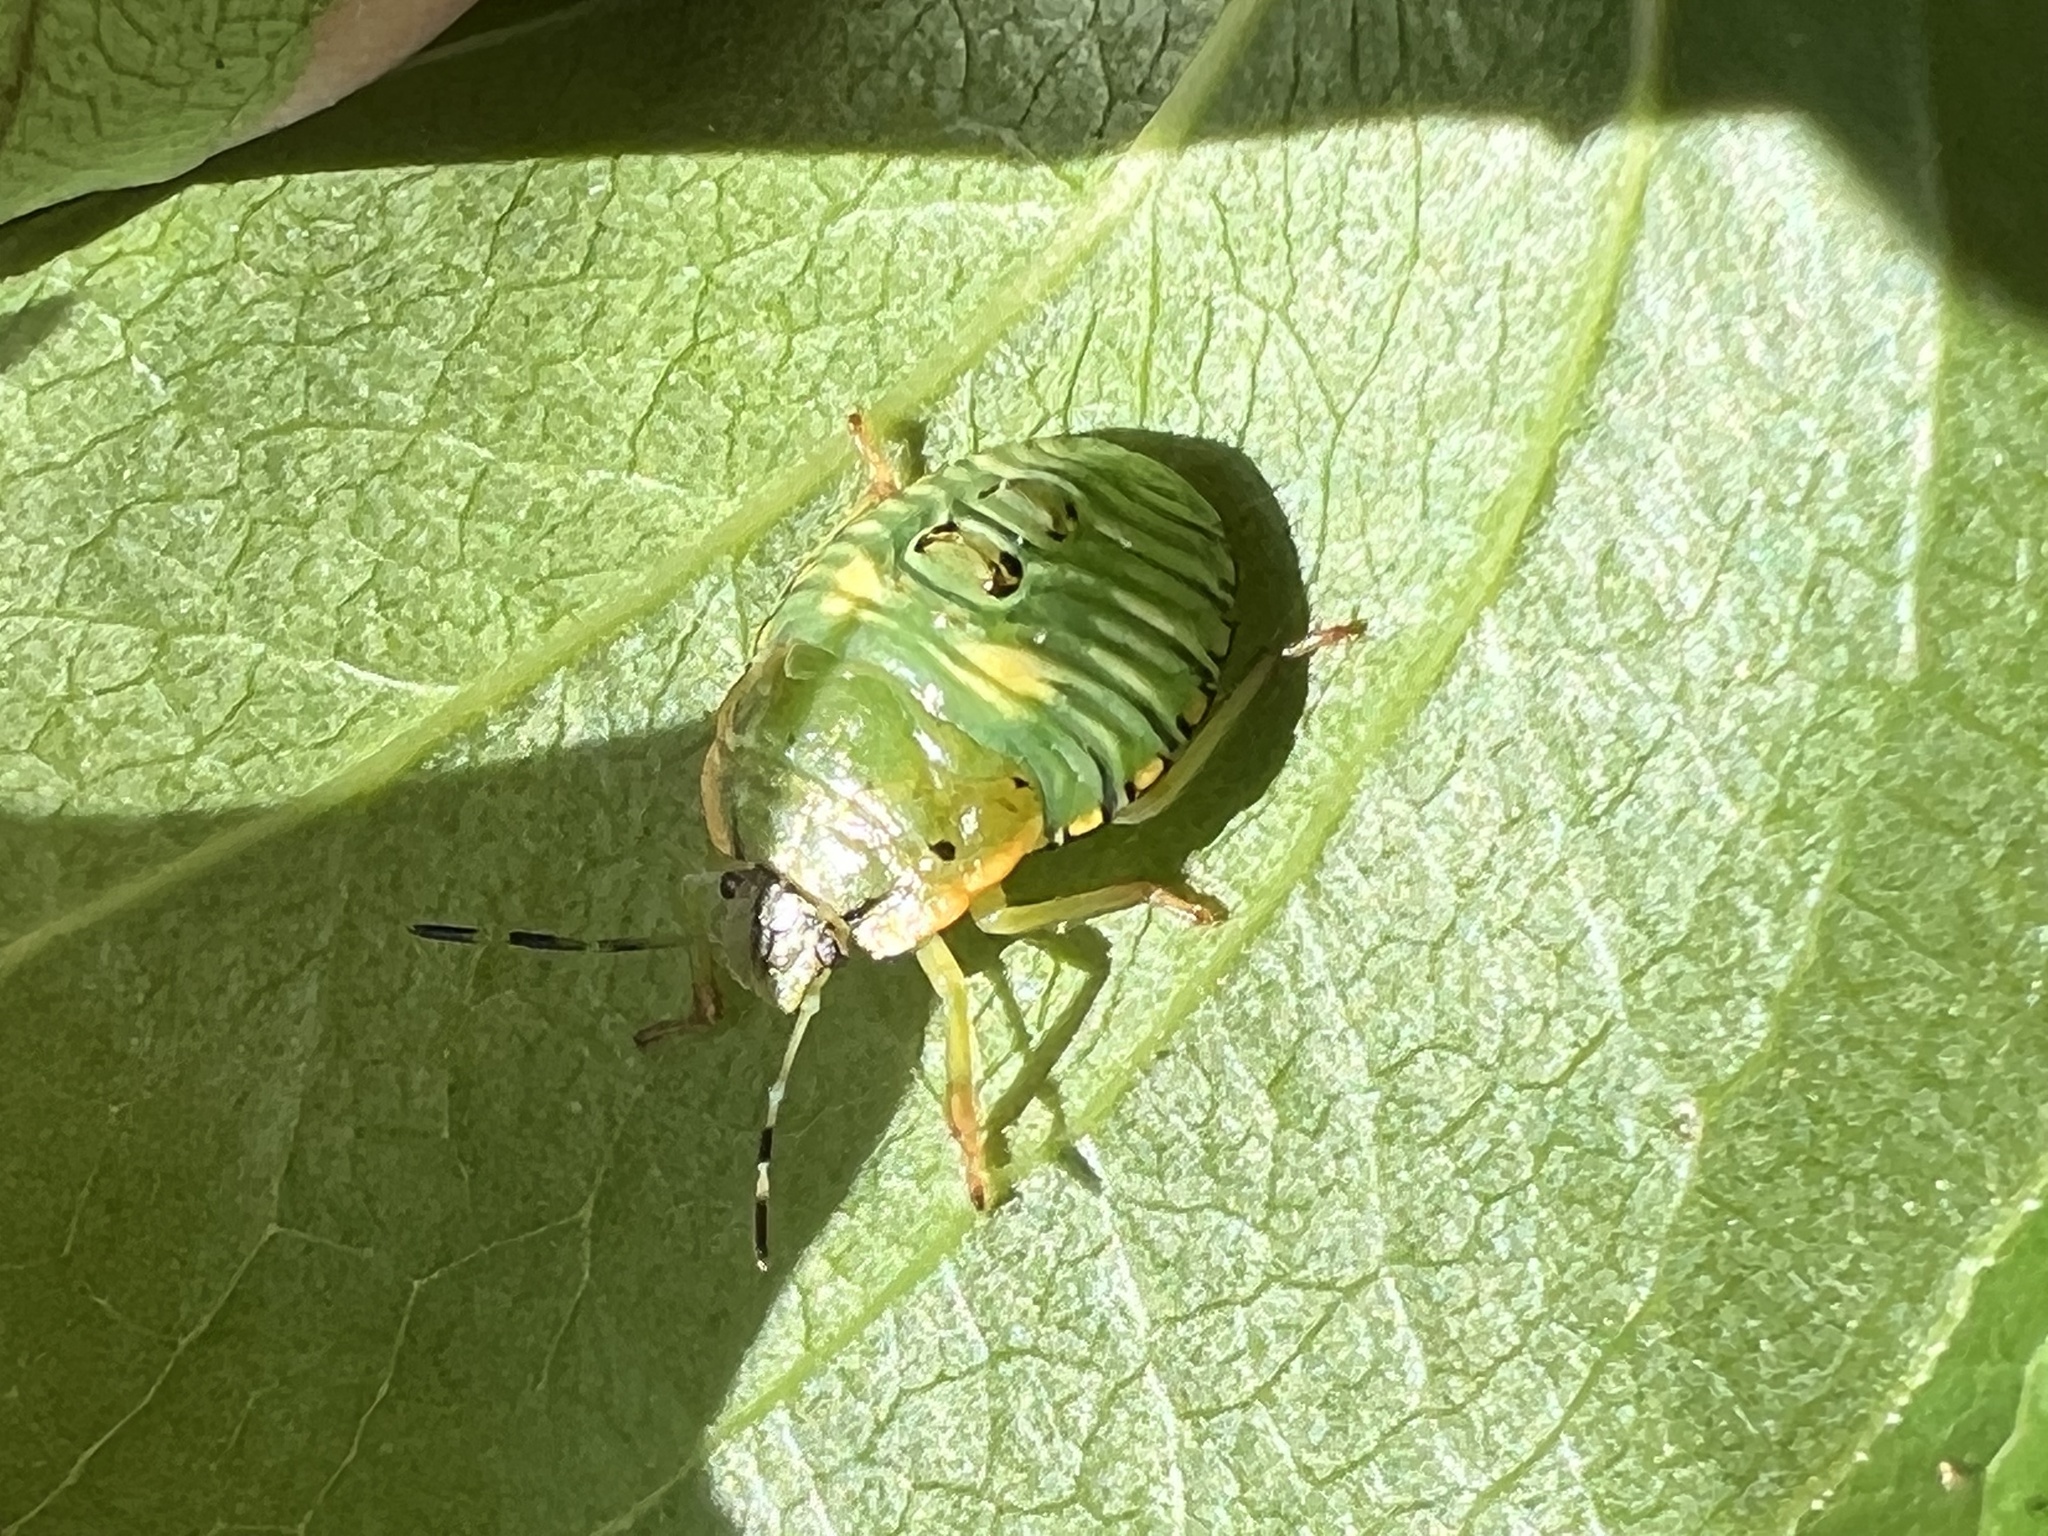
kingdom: Animalia
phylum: Arthropoda
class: Insecta
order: Hemiptera
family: Pentatomidae
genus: Chinavia
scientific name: Chinavia hilaris
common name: Green stink bug
